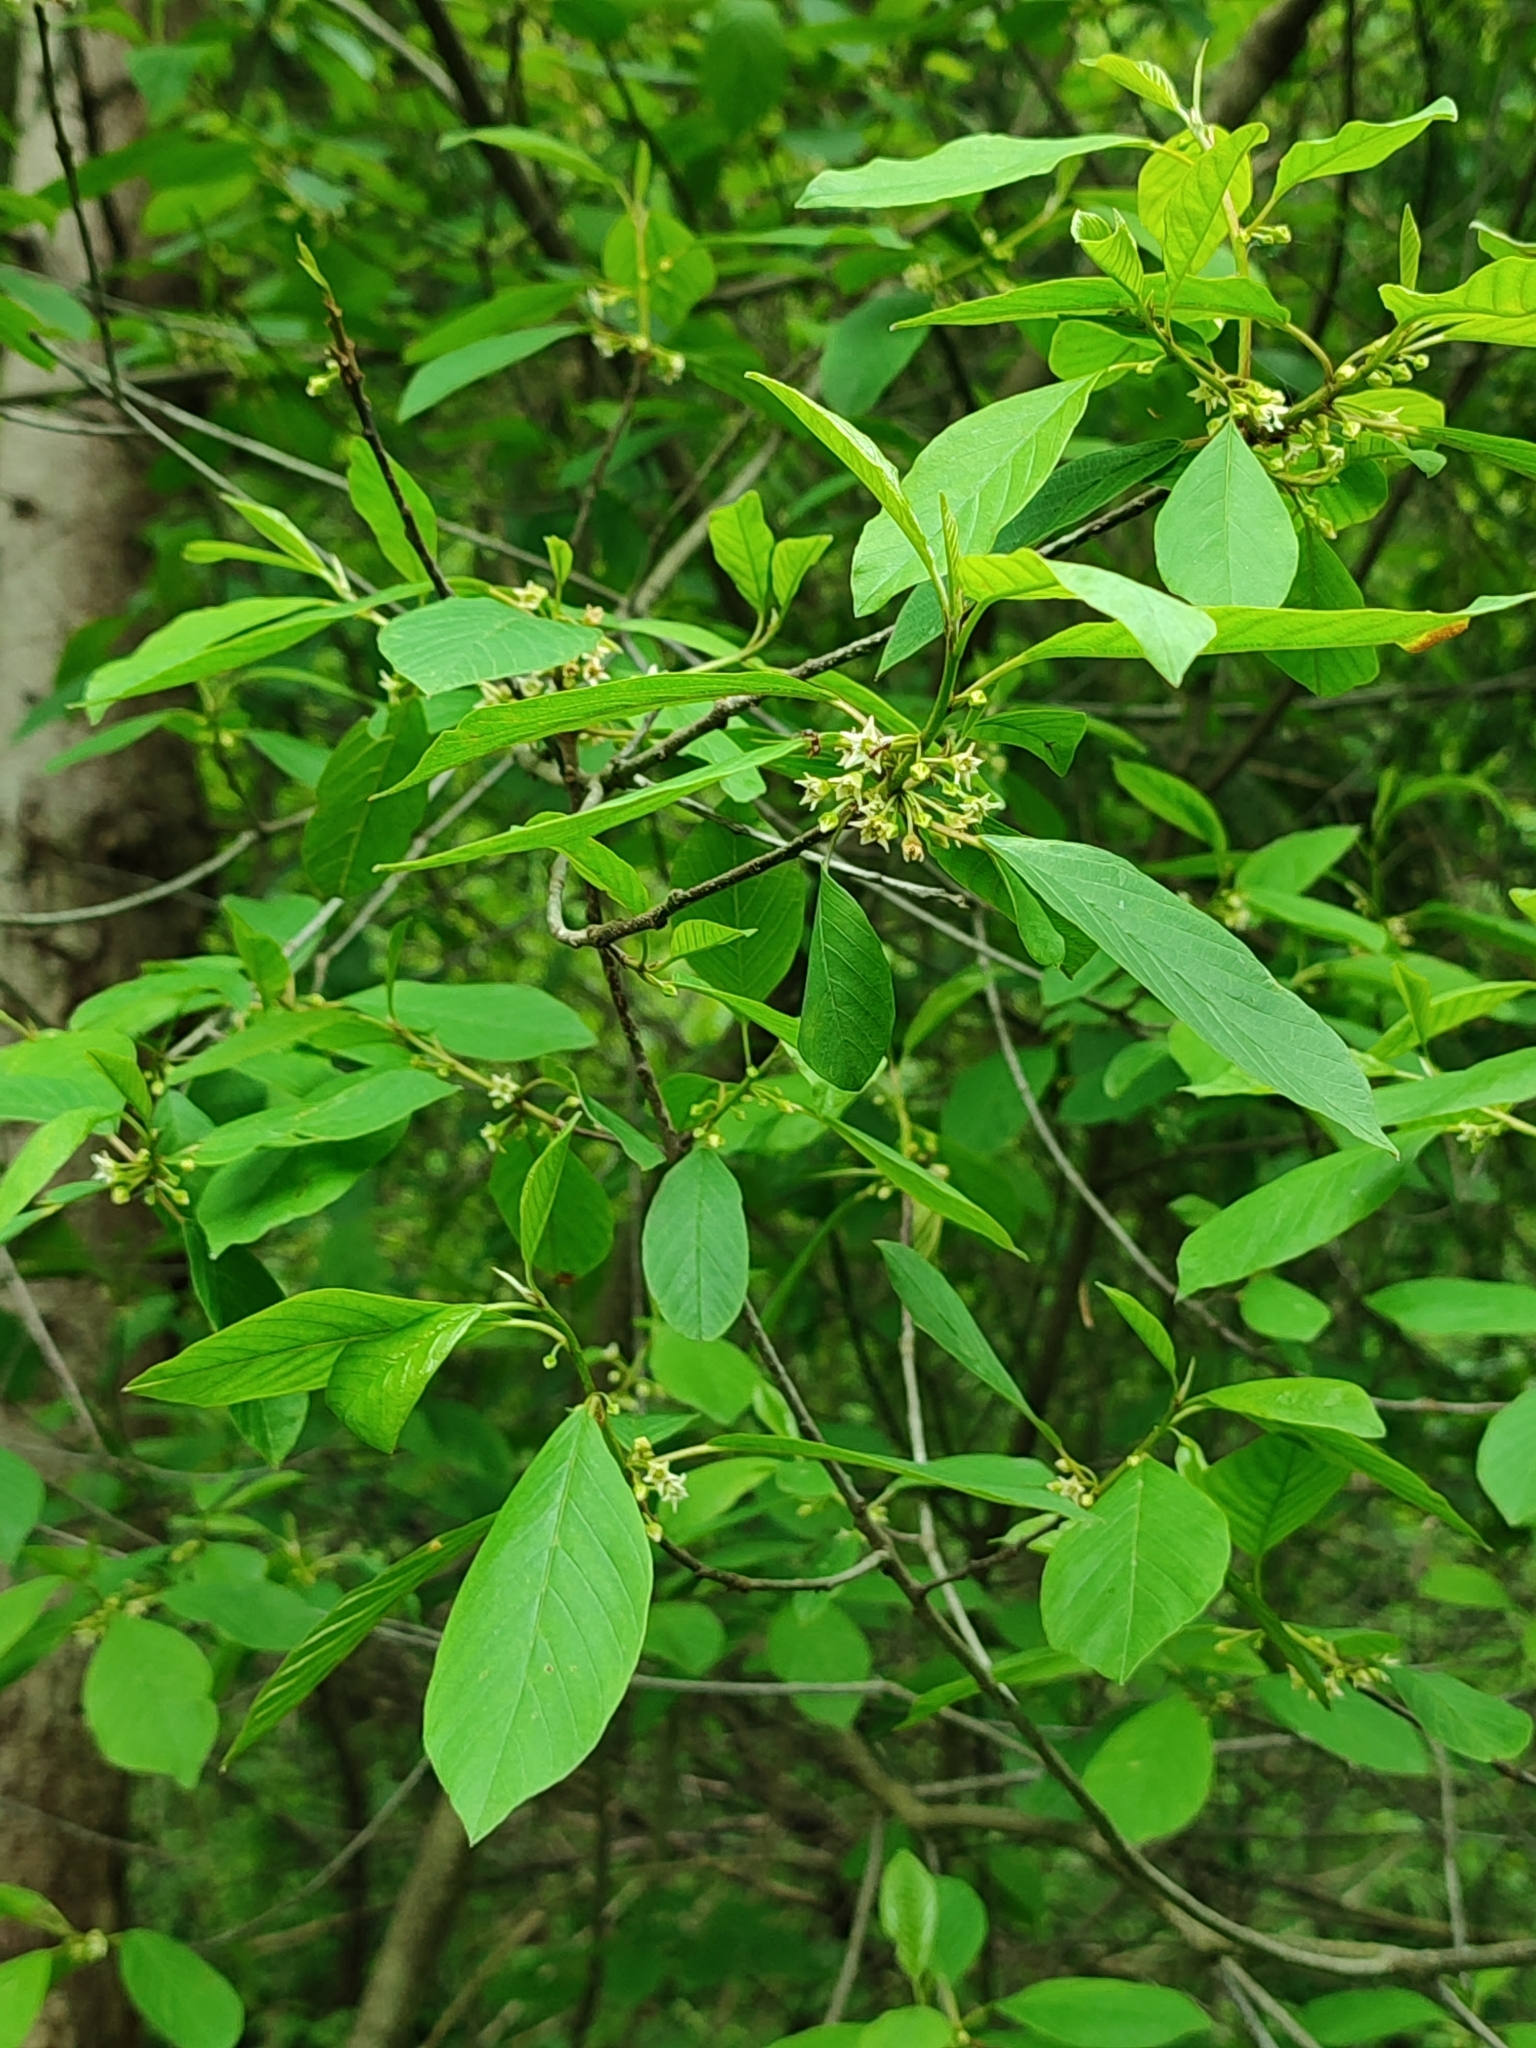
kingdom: Plantae
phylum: Tracheophyta
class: Magnoliopsida
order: Rosales
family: Rhamnaceae
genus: Frangula
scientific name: Frangula alnus
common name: Alder buckthorn
